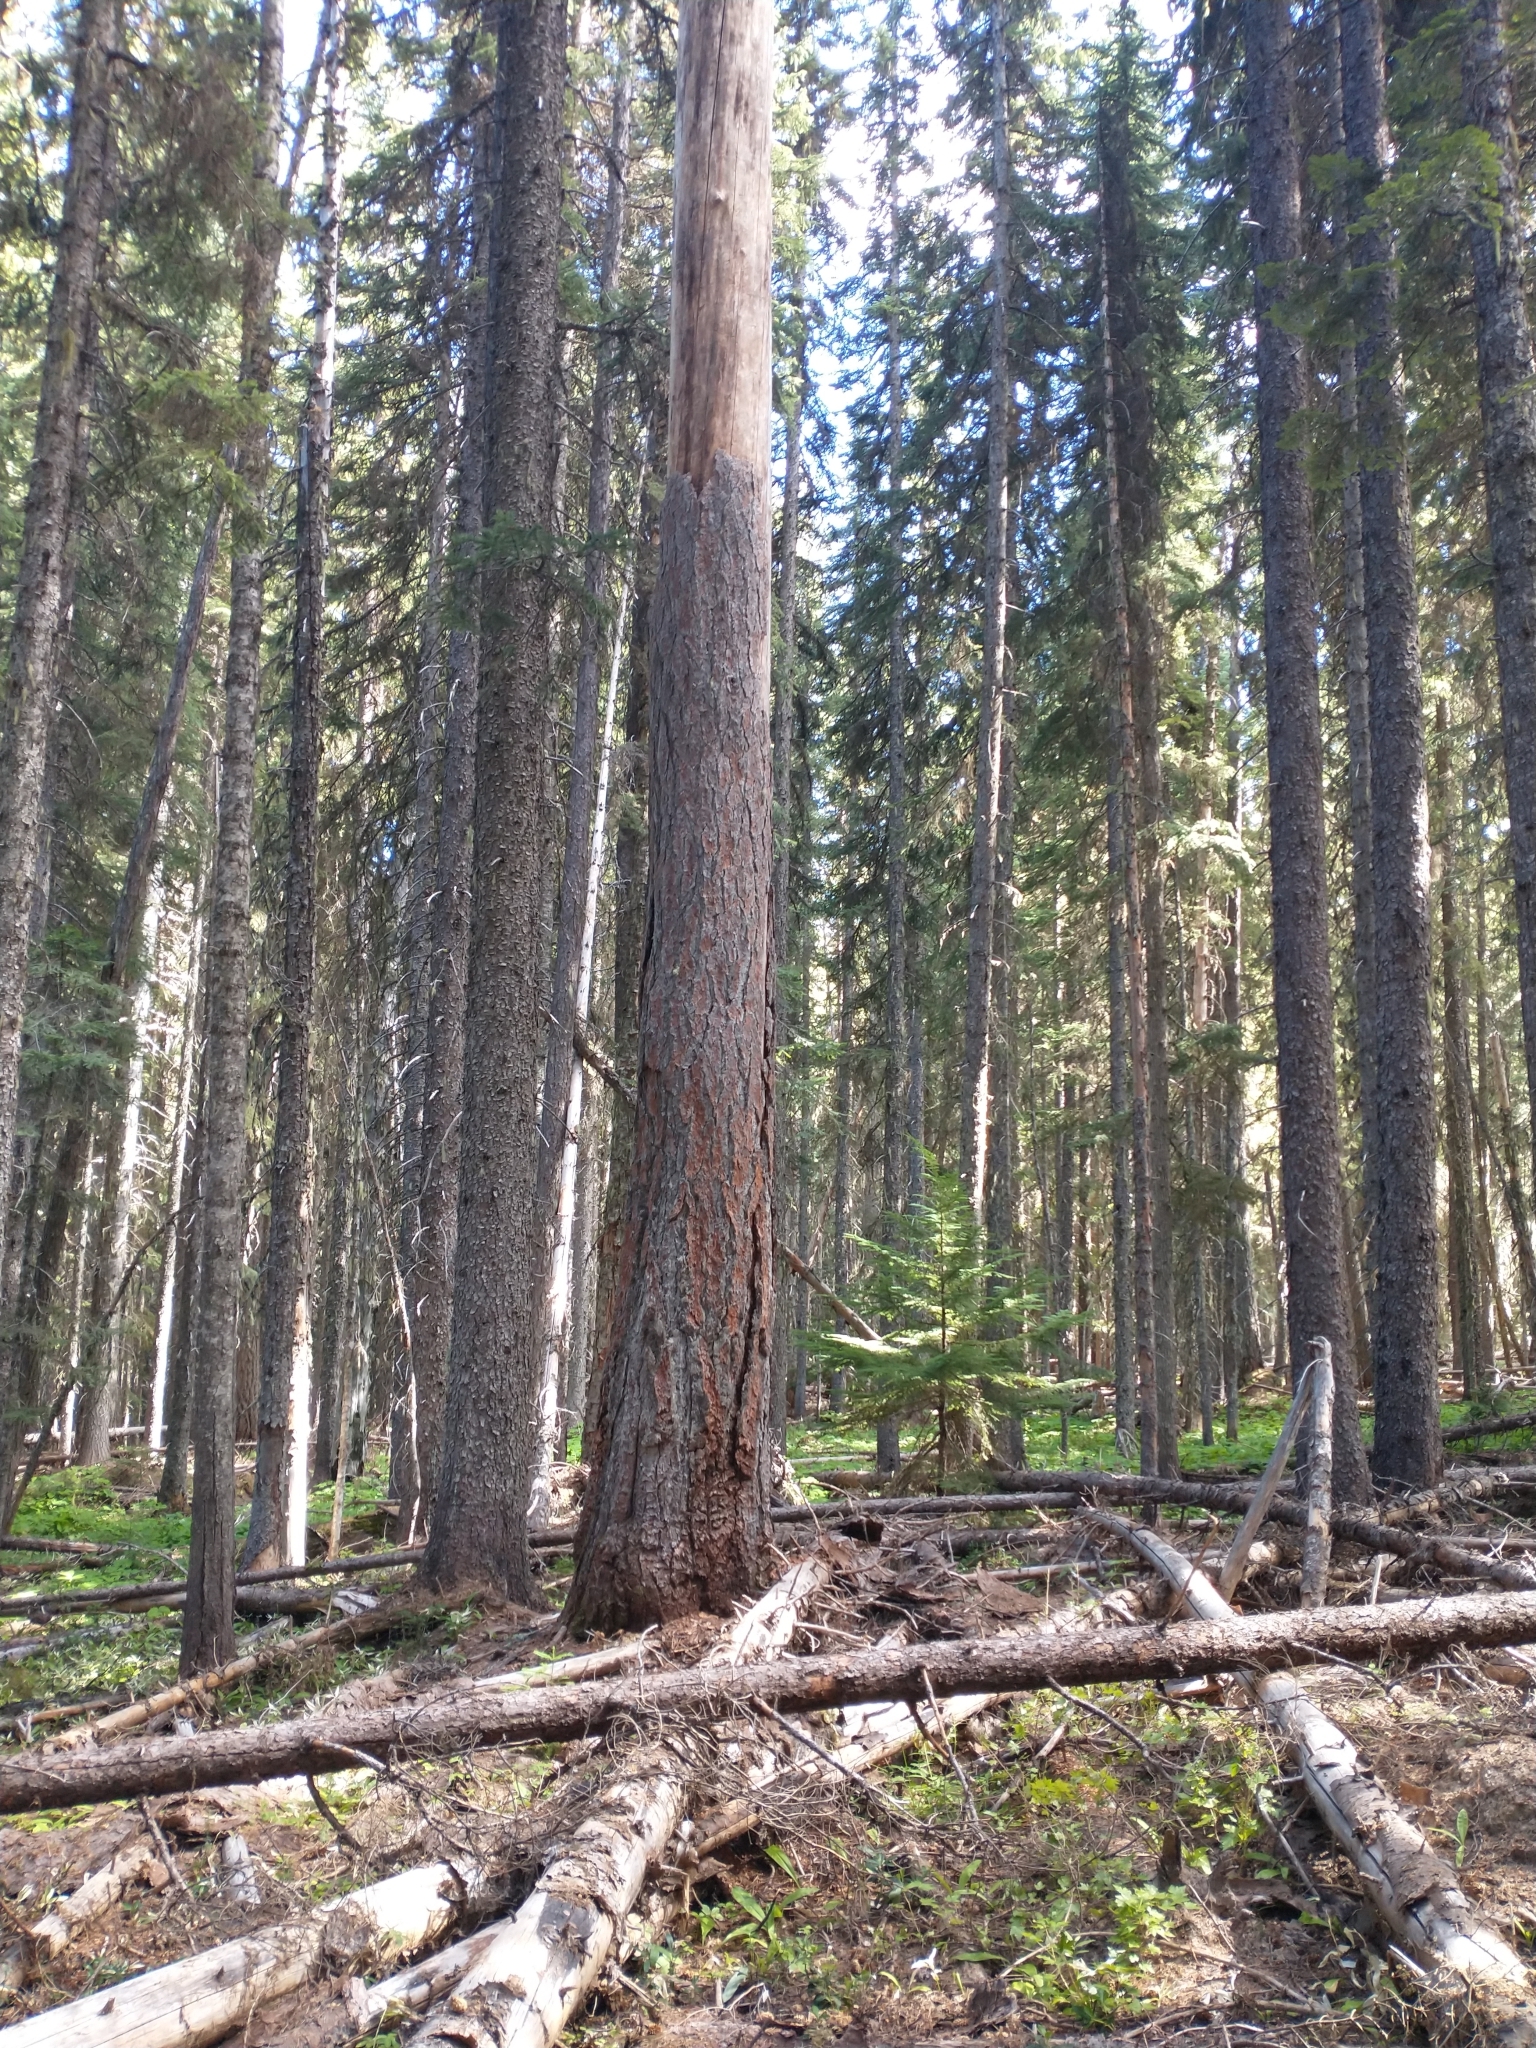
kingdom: Plantae
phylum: Tracheophyta
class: Pinopsida
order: Pinales
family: Pinaceae
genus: Larix
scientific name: Larix occidentalis
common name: Western larch
